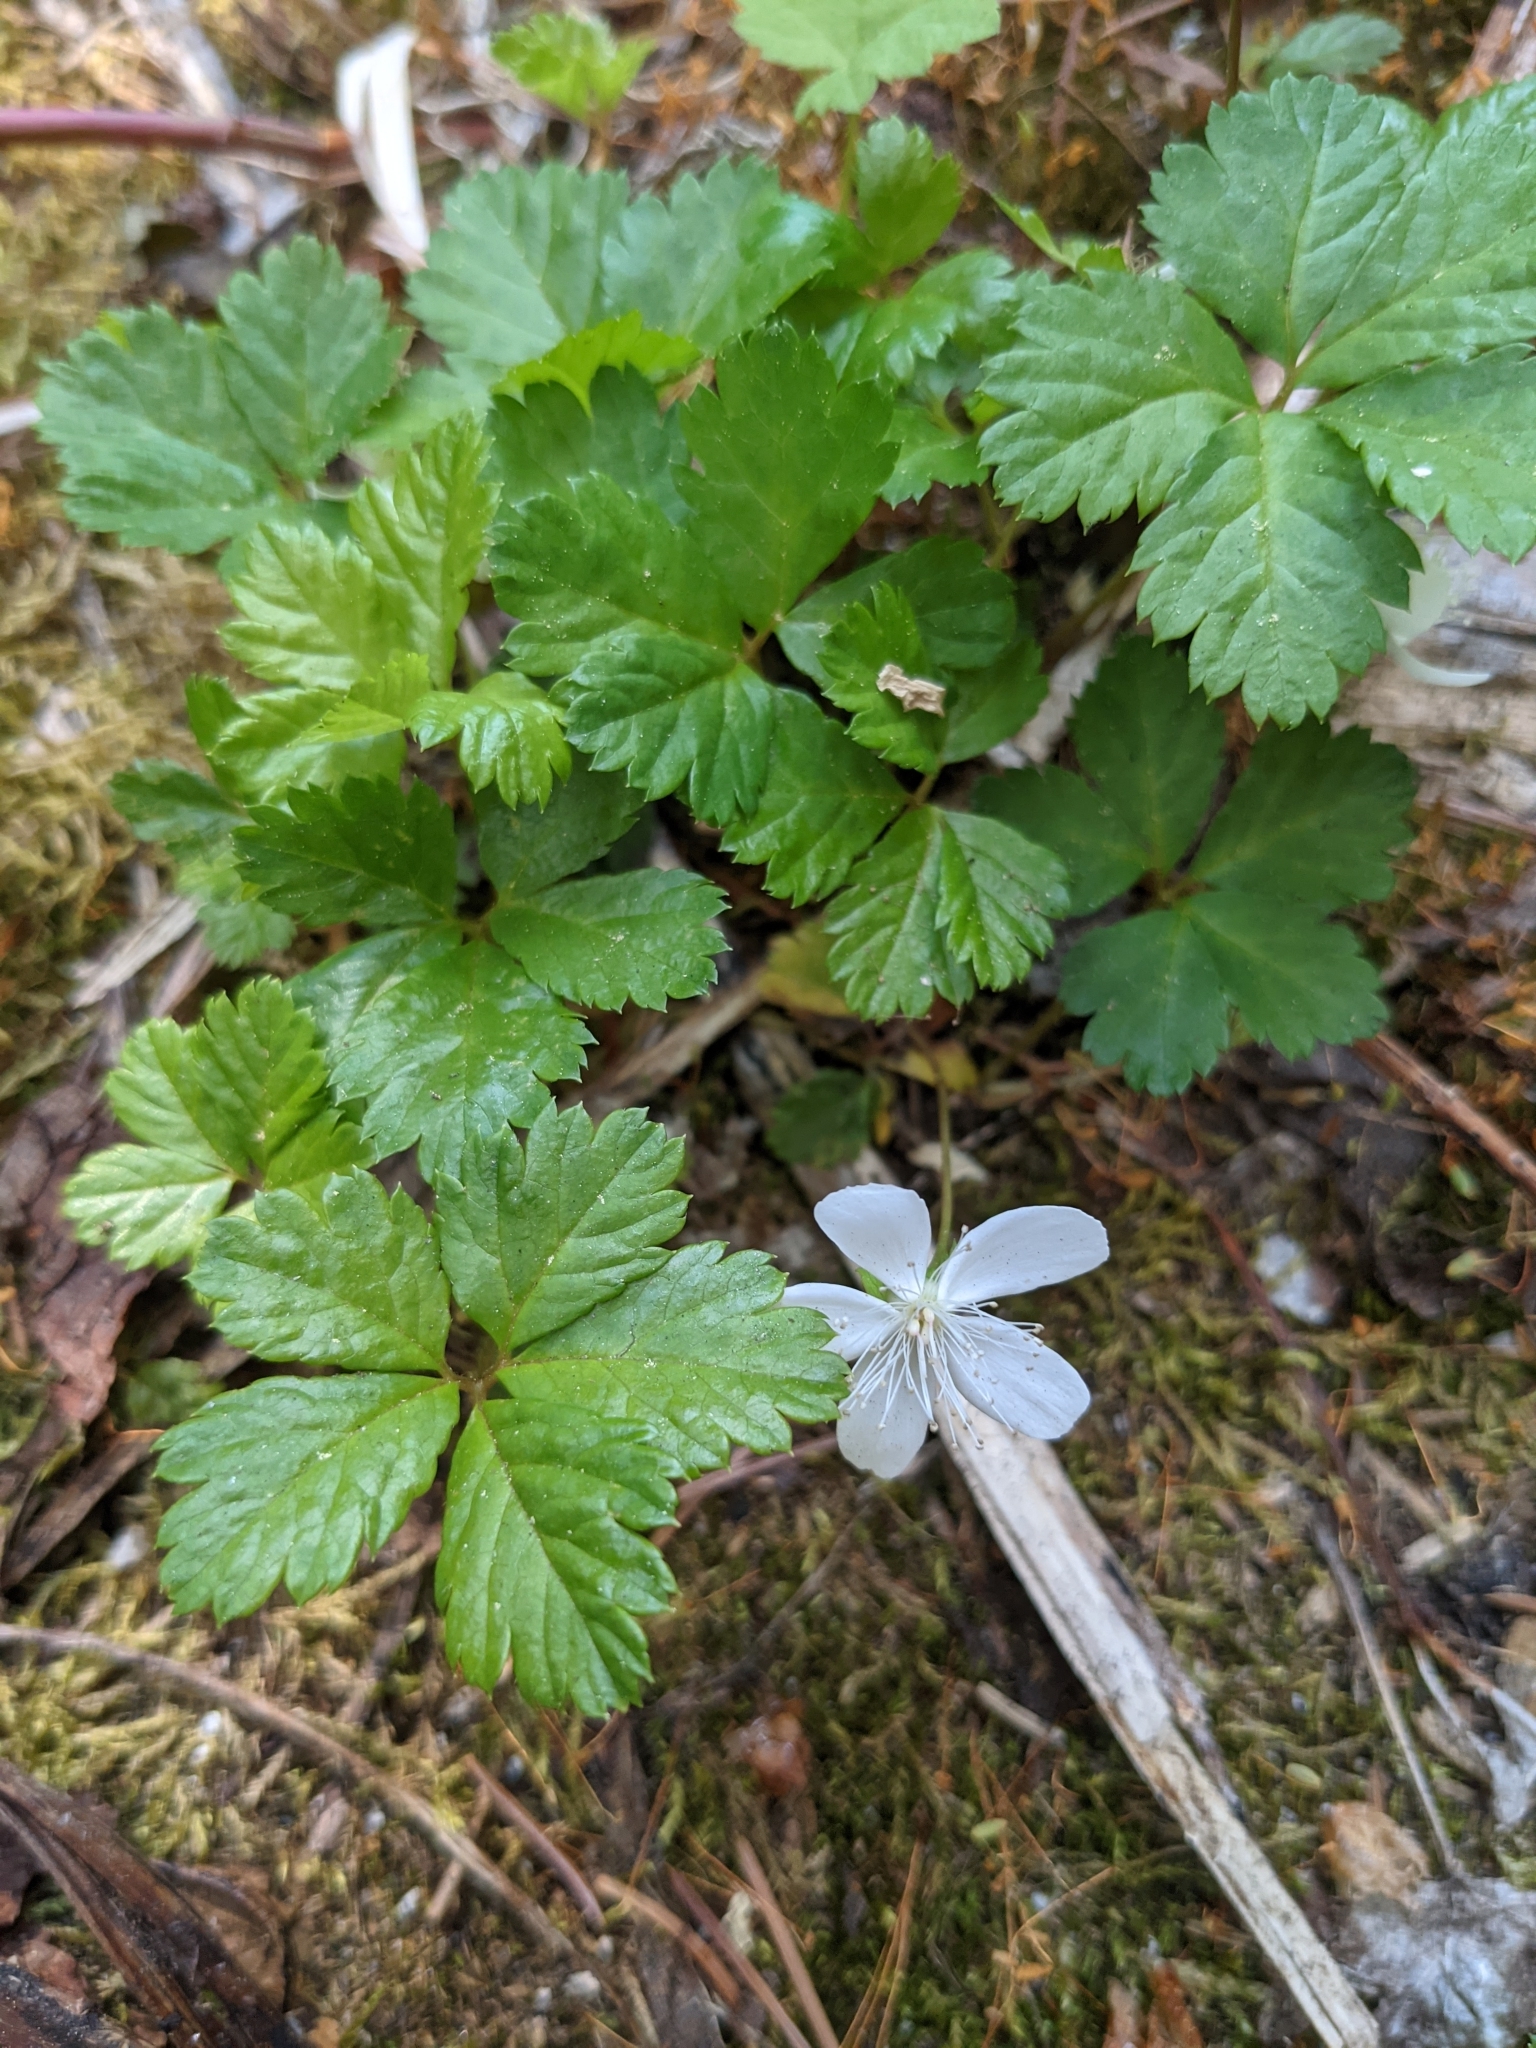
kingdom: Plantae
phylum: Tracheophyta
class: Magnoliopsida
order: Rosales
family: Rosaceae
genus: Rubus
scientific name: Rubus pedatus
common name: Creeping raspberry
